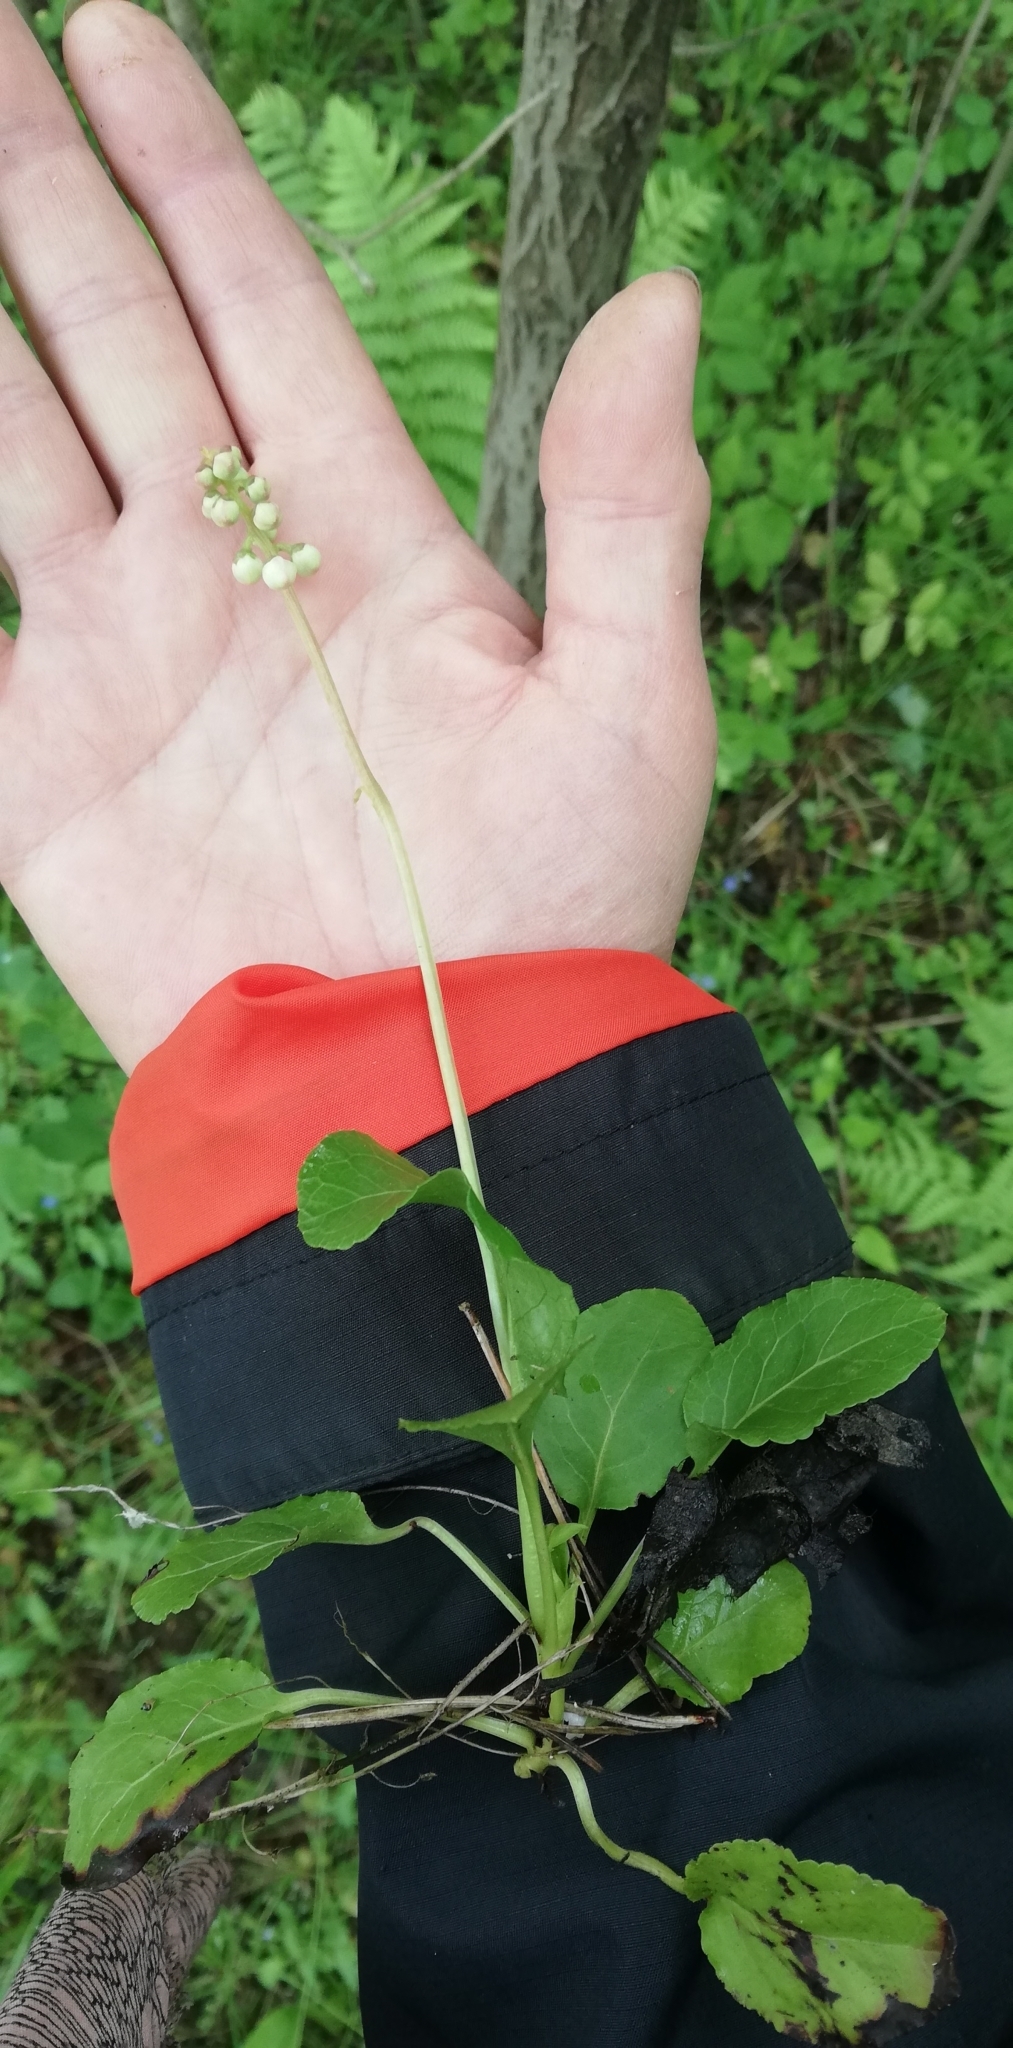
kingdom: Plantae
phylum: Tracheophyta
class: Magnoliopsida
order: Ericales
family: Ericaceae
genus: Pyrola
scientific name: Pyrola minor
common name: Common wintergreen
